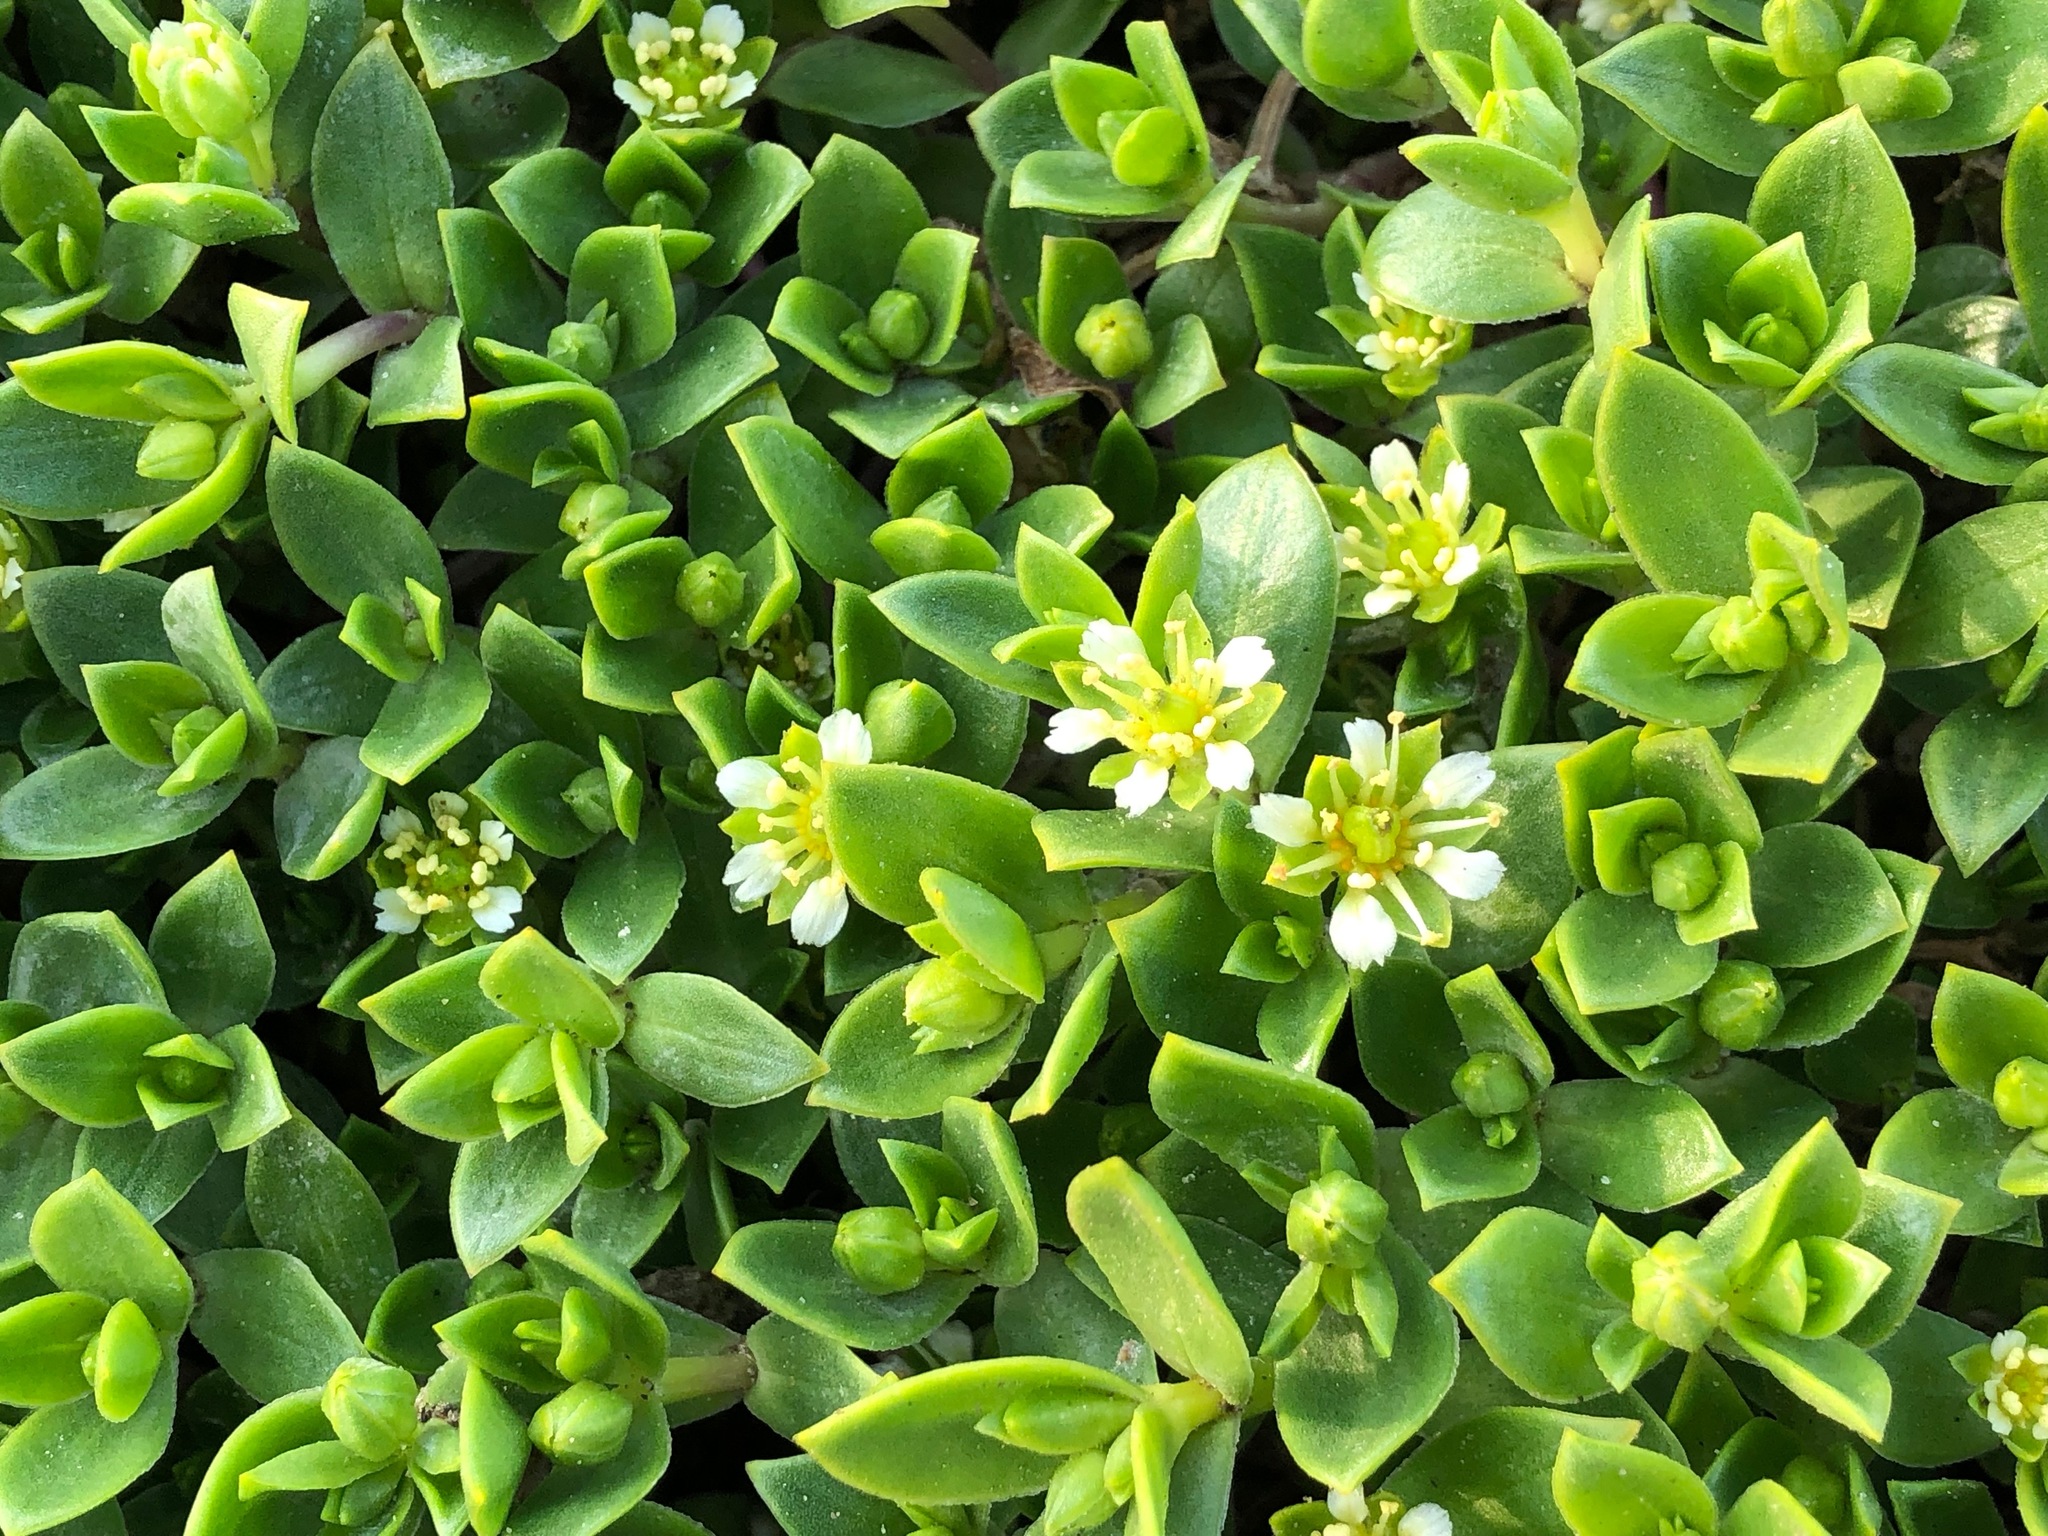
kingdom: Plantae
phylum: Tracheophyta
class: Magnoliopsida
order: Caryophyllales
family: Caryophyllaceae
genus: Honckenya
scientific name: Honckenya peploides
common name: Sea sandwort
